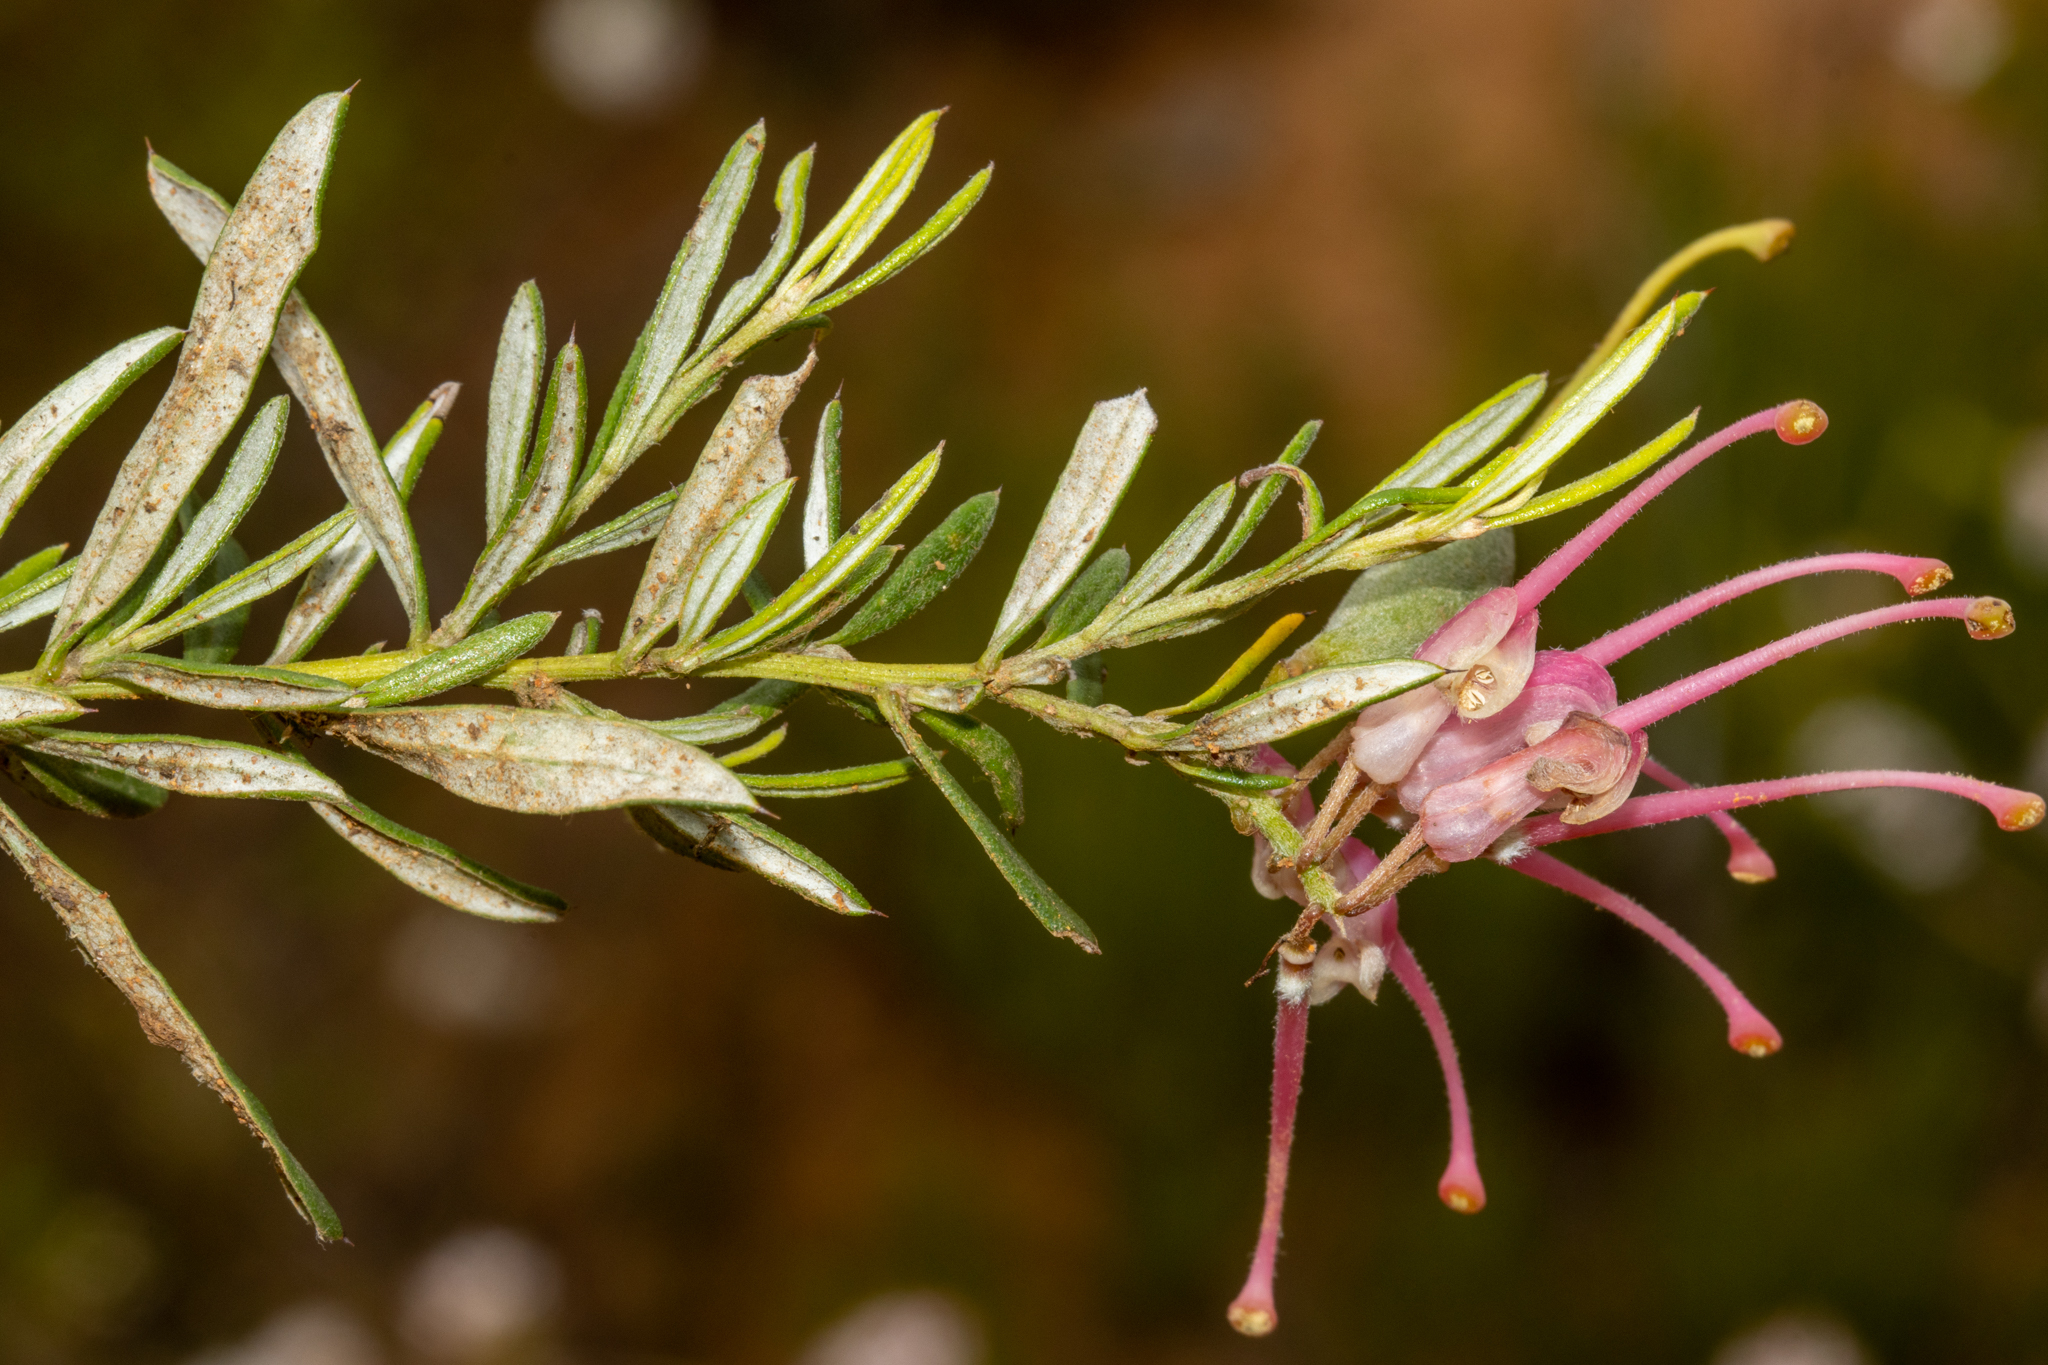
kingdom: Plantae
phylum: Tracheophyta
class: Magnoliopsida
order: Proteales
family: Proteaceae
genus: Grevillea
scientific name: Grevillea lavandulacea
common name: Lavender grevillea
